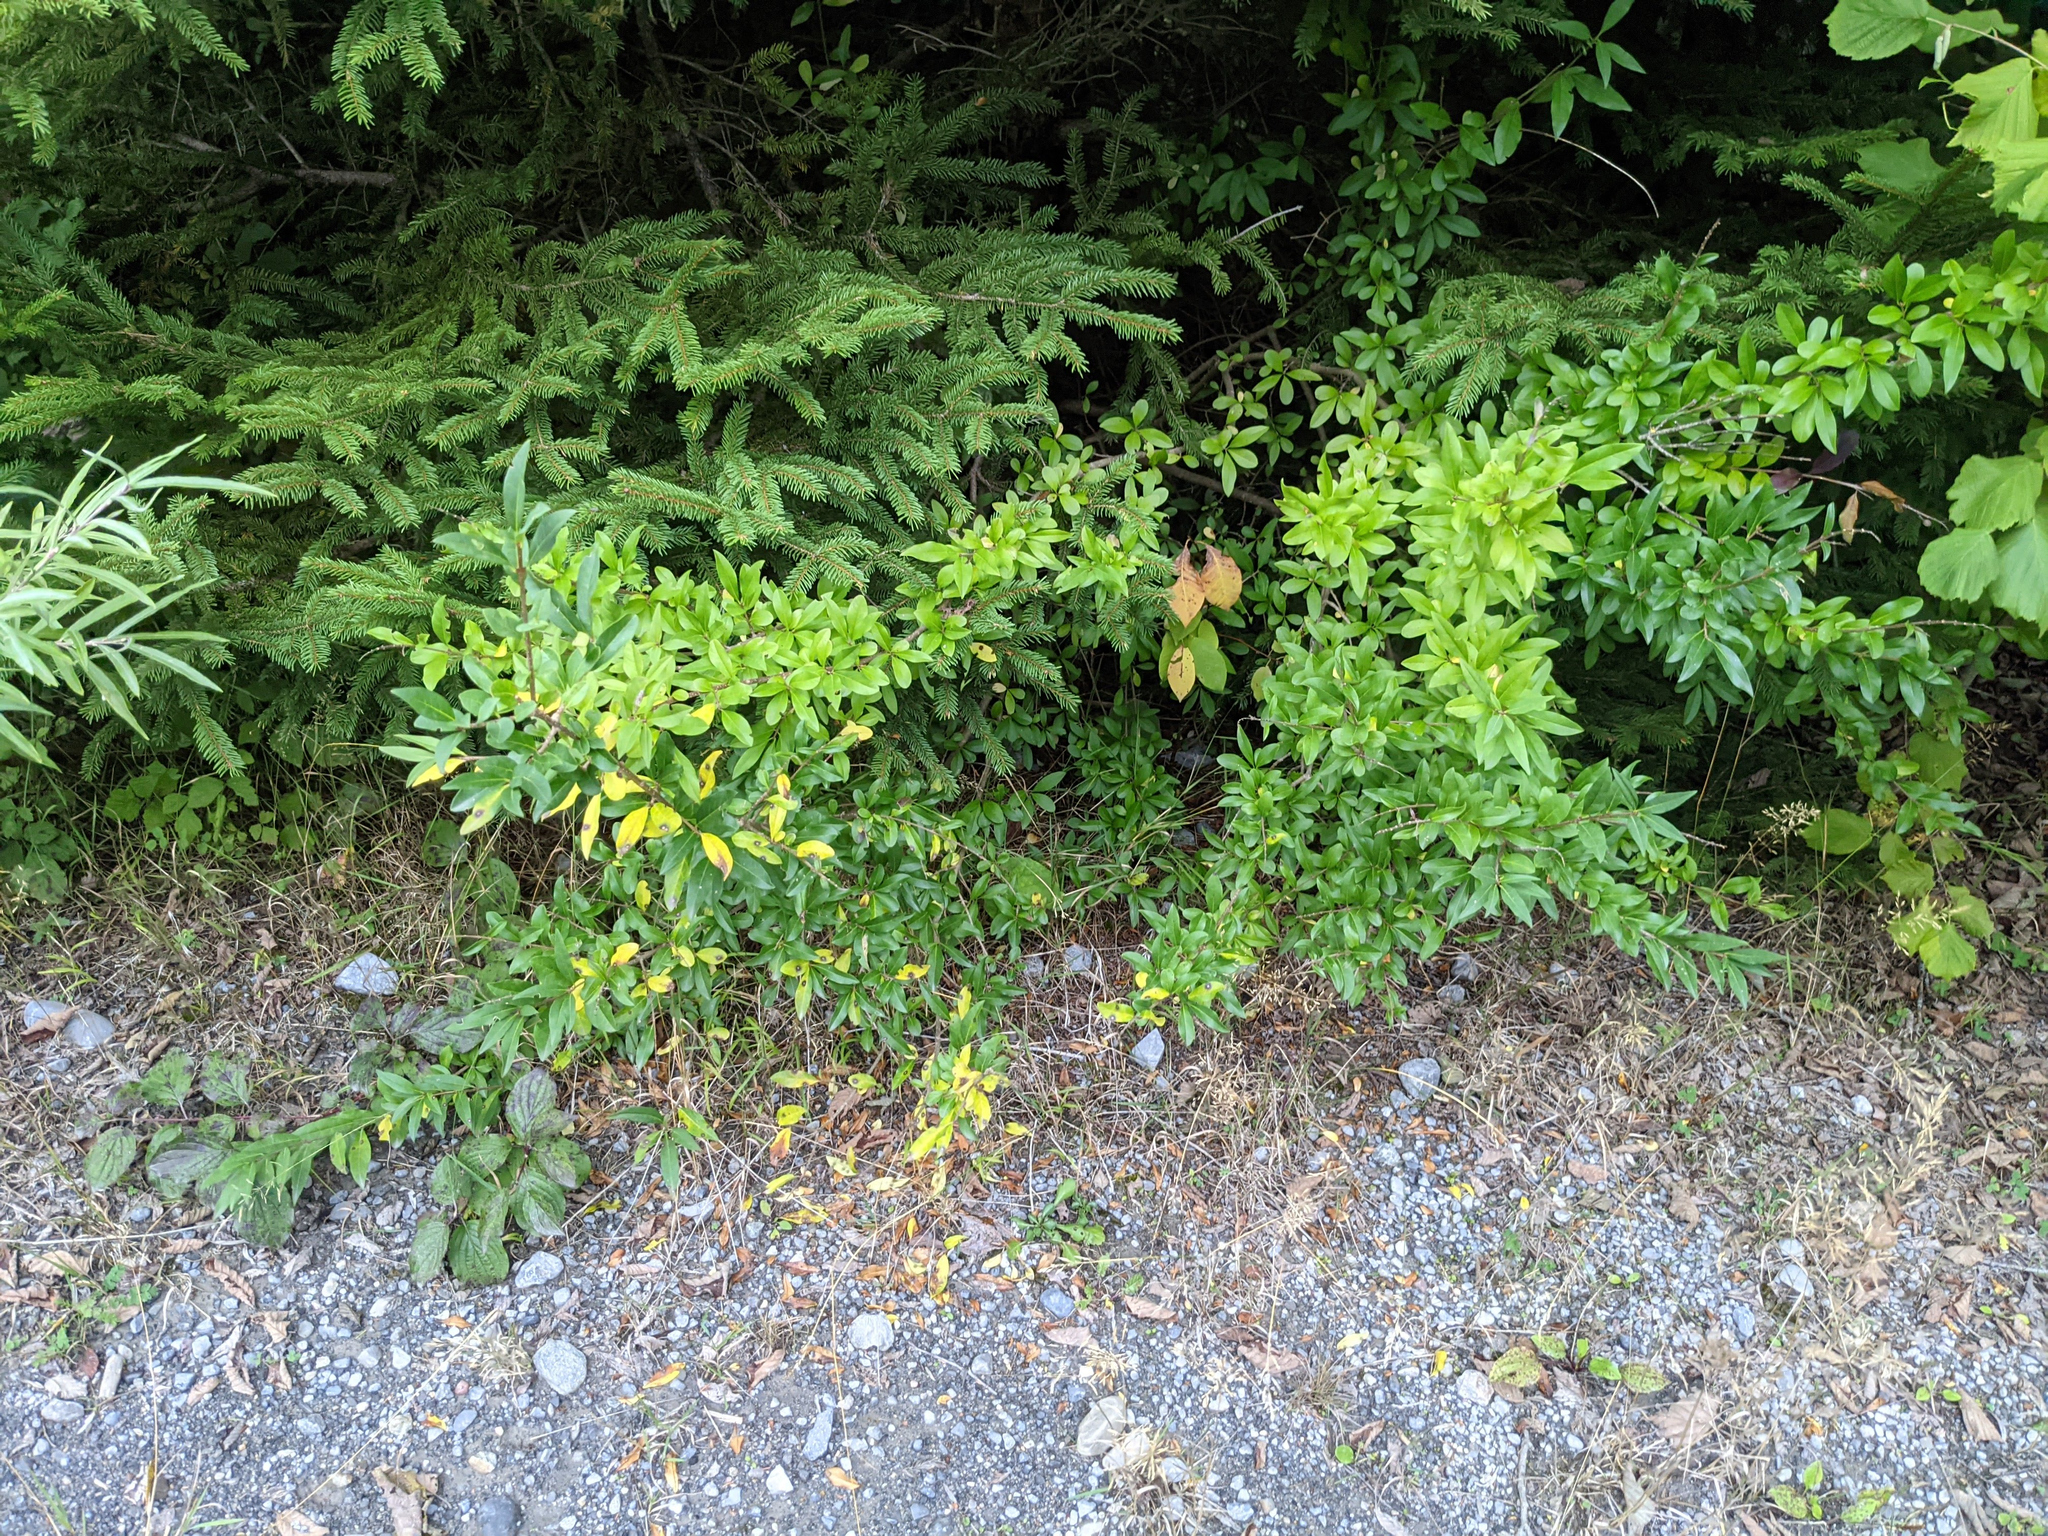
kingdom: Plantae
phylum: Tracheophyta
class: Magnoliopsida
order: Lamiales
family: Oleaceae
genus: Ligustrum
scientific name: Ligustrum vulgare
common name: Wild privet
